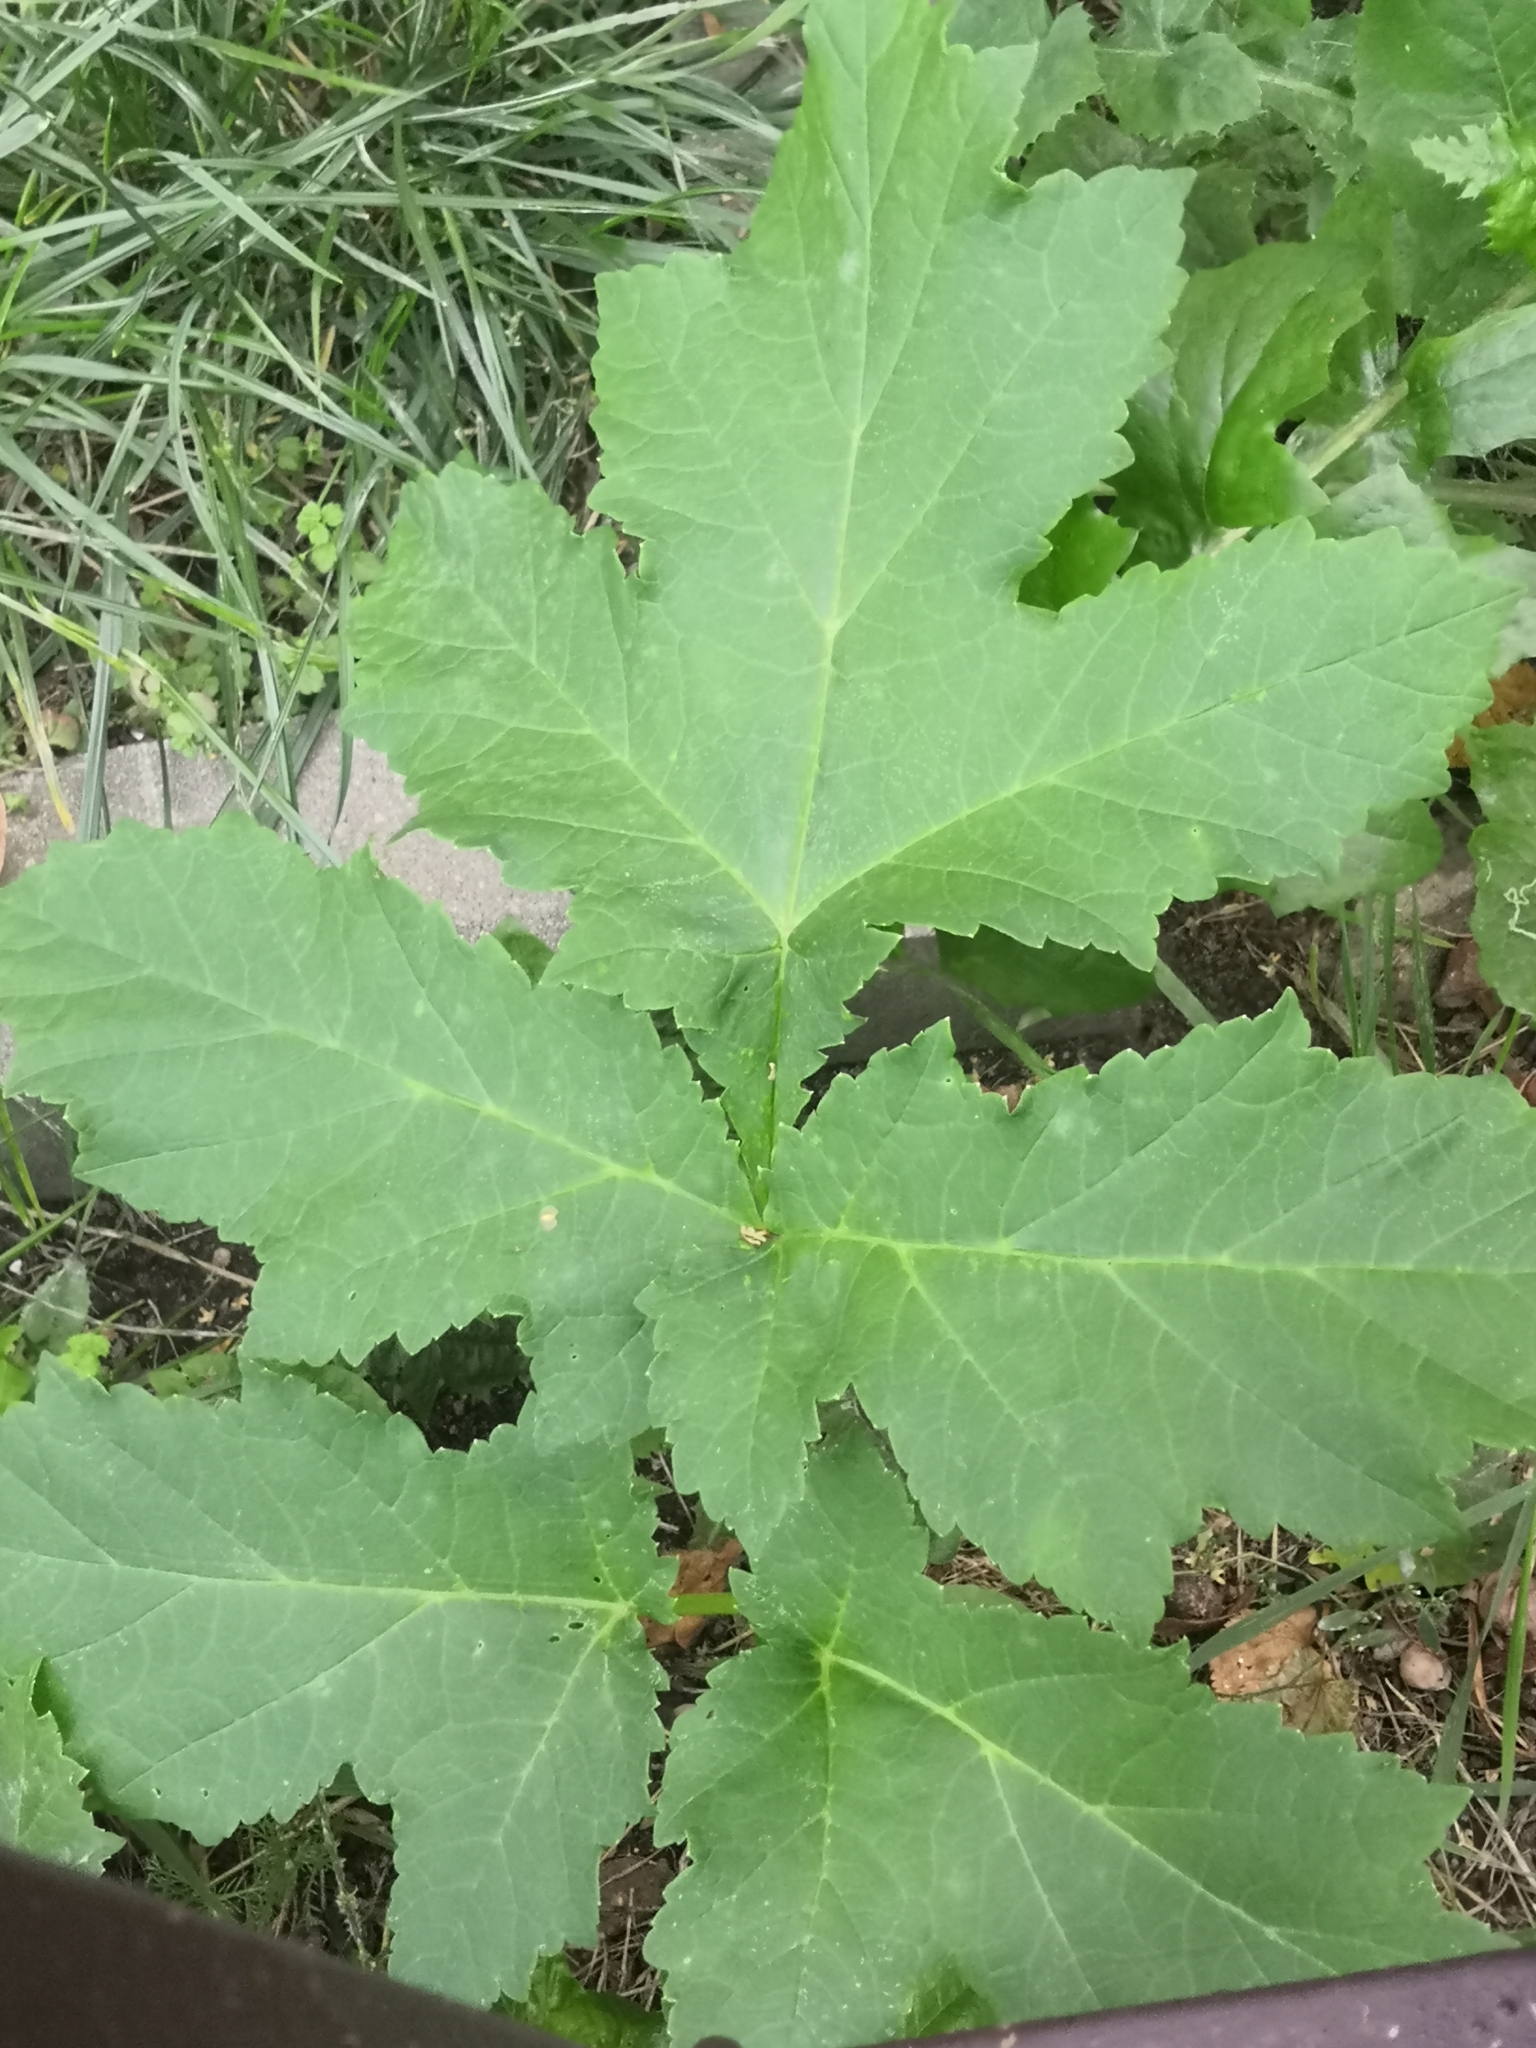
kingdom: Plantae
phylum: Tracheophyta
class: Magnoliopsida
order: Apiales
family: Apiaceae
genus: Heracleum
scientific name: Heracleum sosnowskyi
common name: Sosnowsky's hogweed
